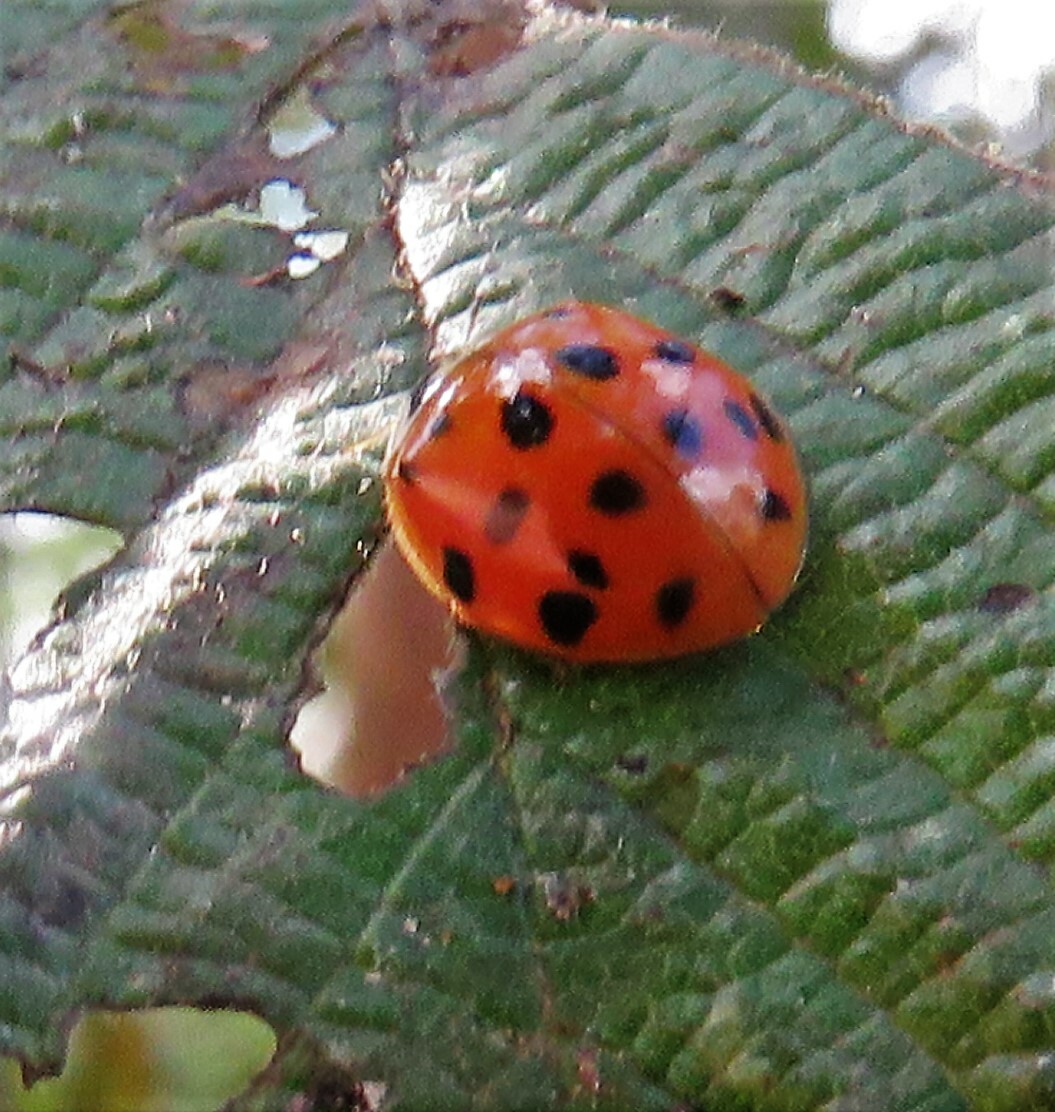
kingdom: Animalia
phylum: Arthropoda
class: Insecta
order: Coleoptera
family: Coccinellidae
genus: Harmonia
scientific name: Harmonia axyridis
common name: Harlequin ladybird
